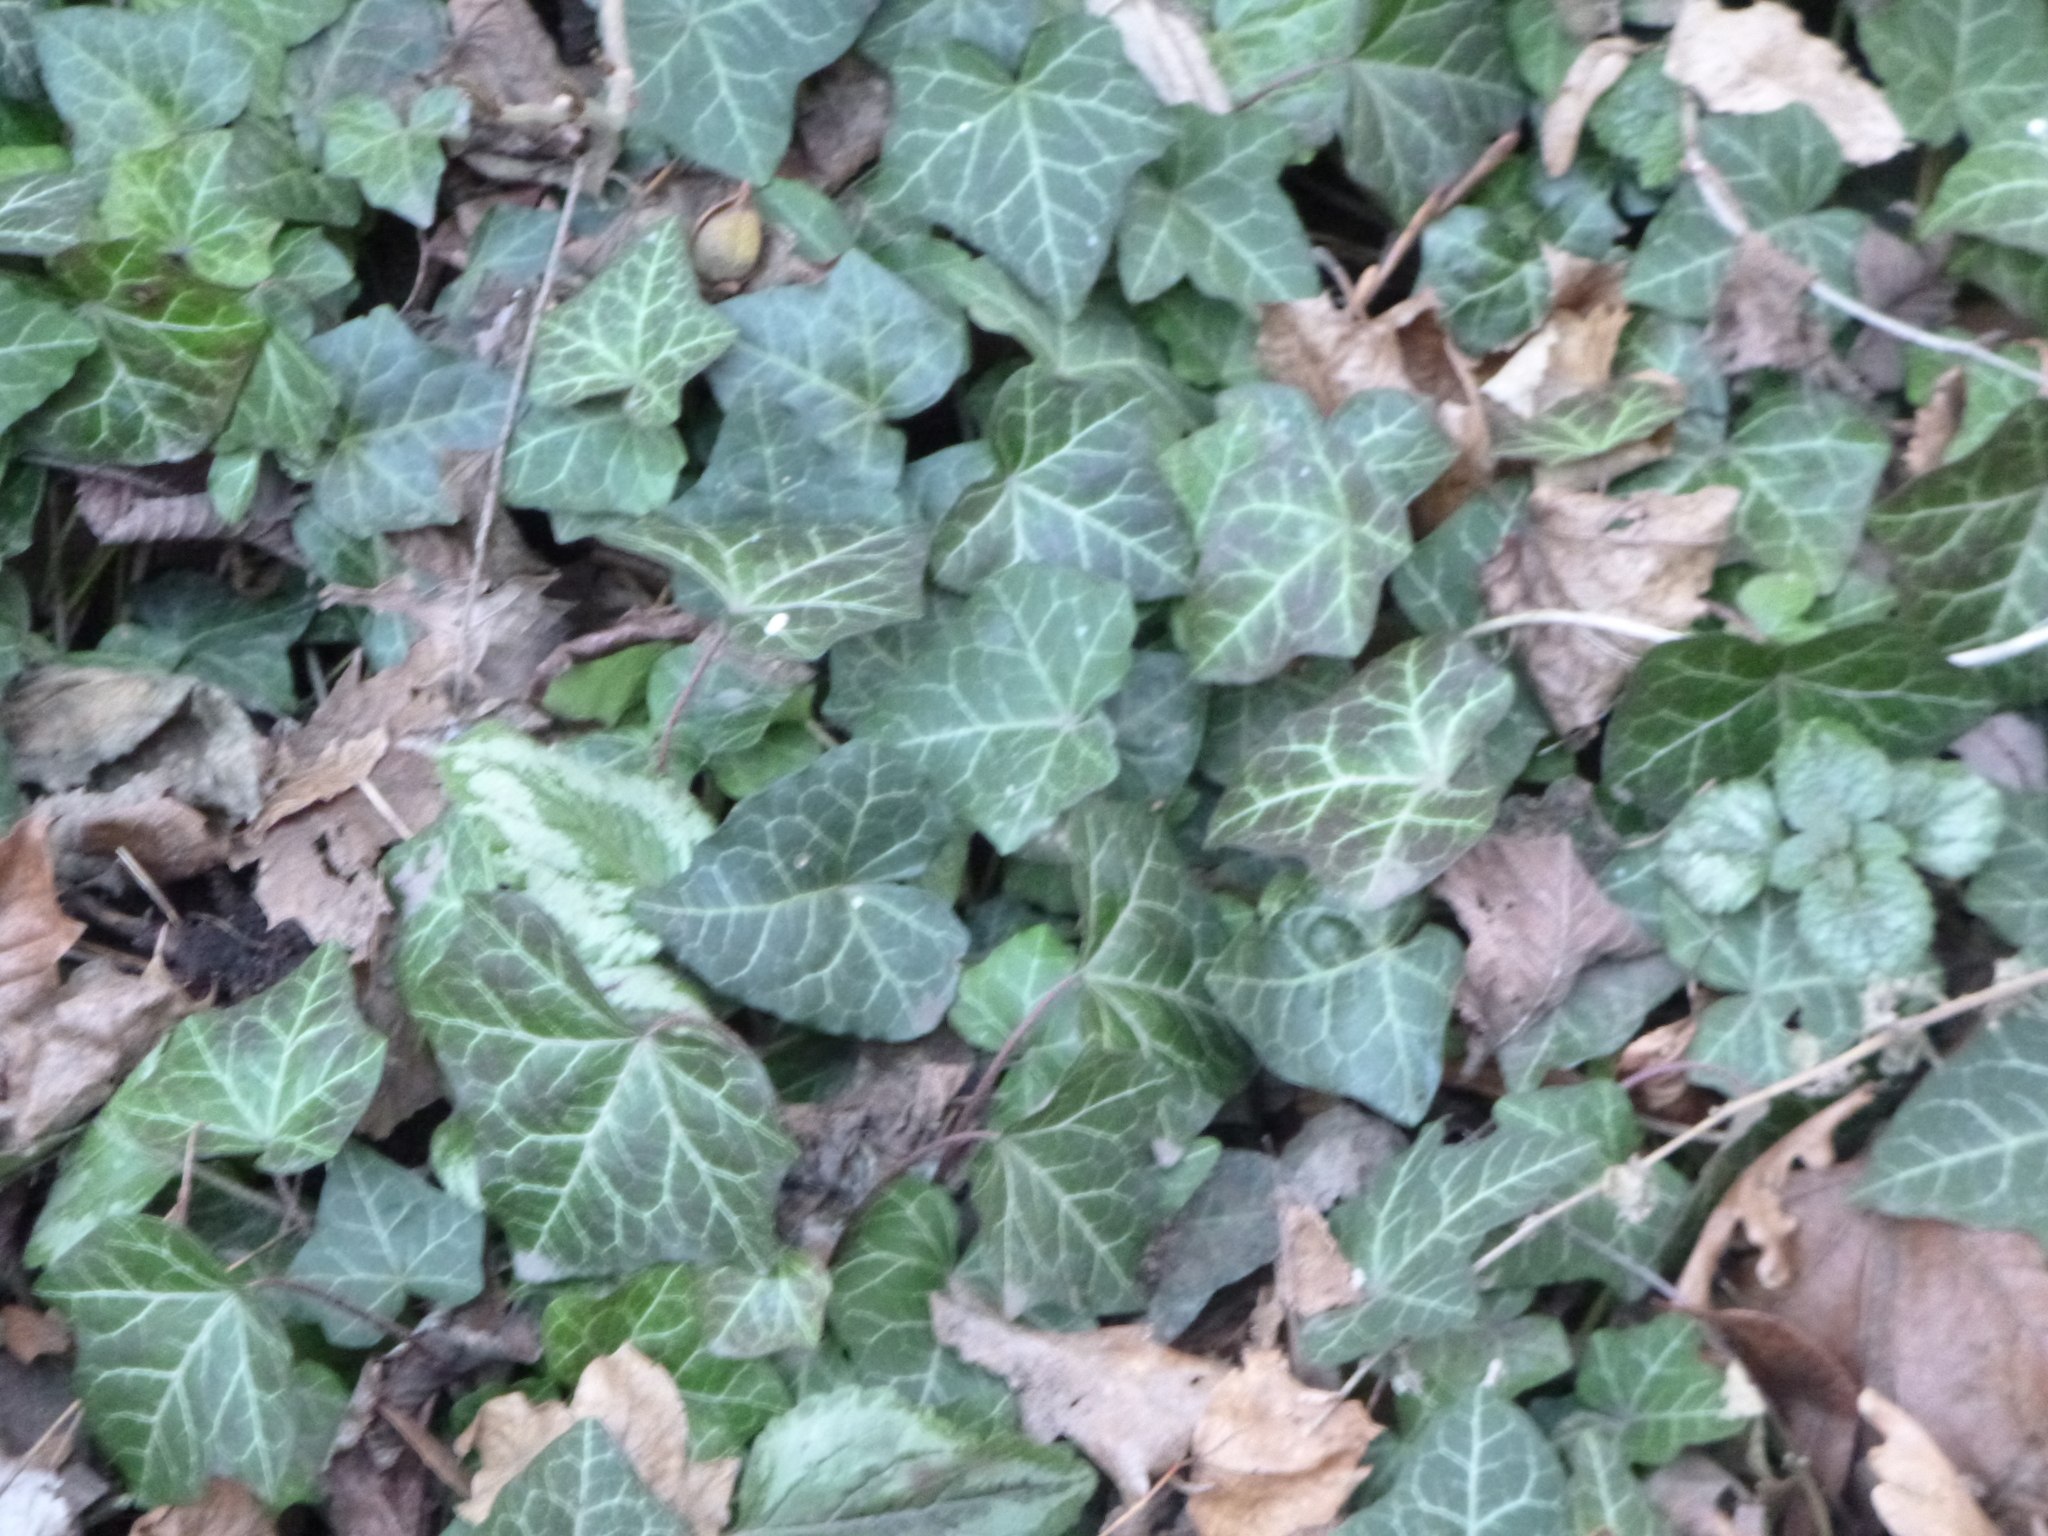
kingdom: Plantae
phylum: Tracheophyta
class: Magnoliopsida
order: Apiales
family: Araliaceae
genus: Hedera
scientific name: Hedera helix
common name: Ivy
